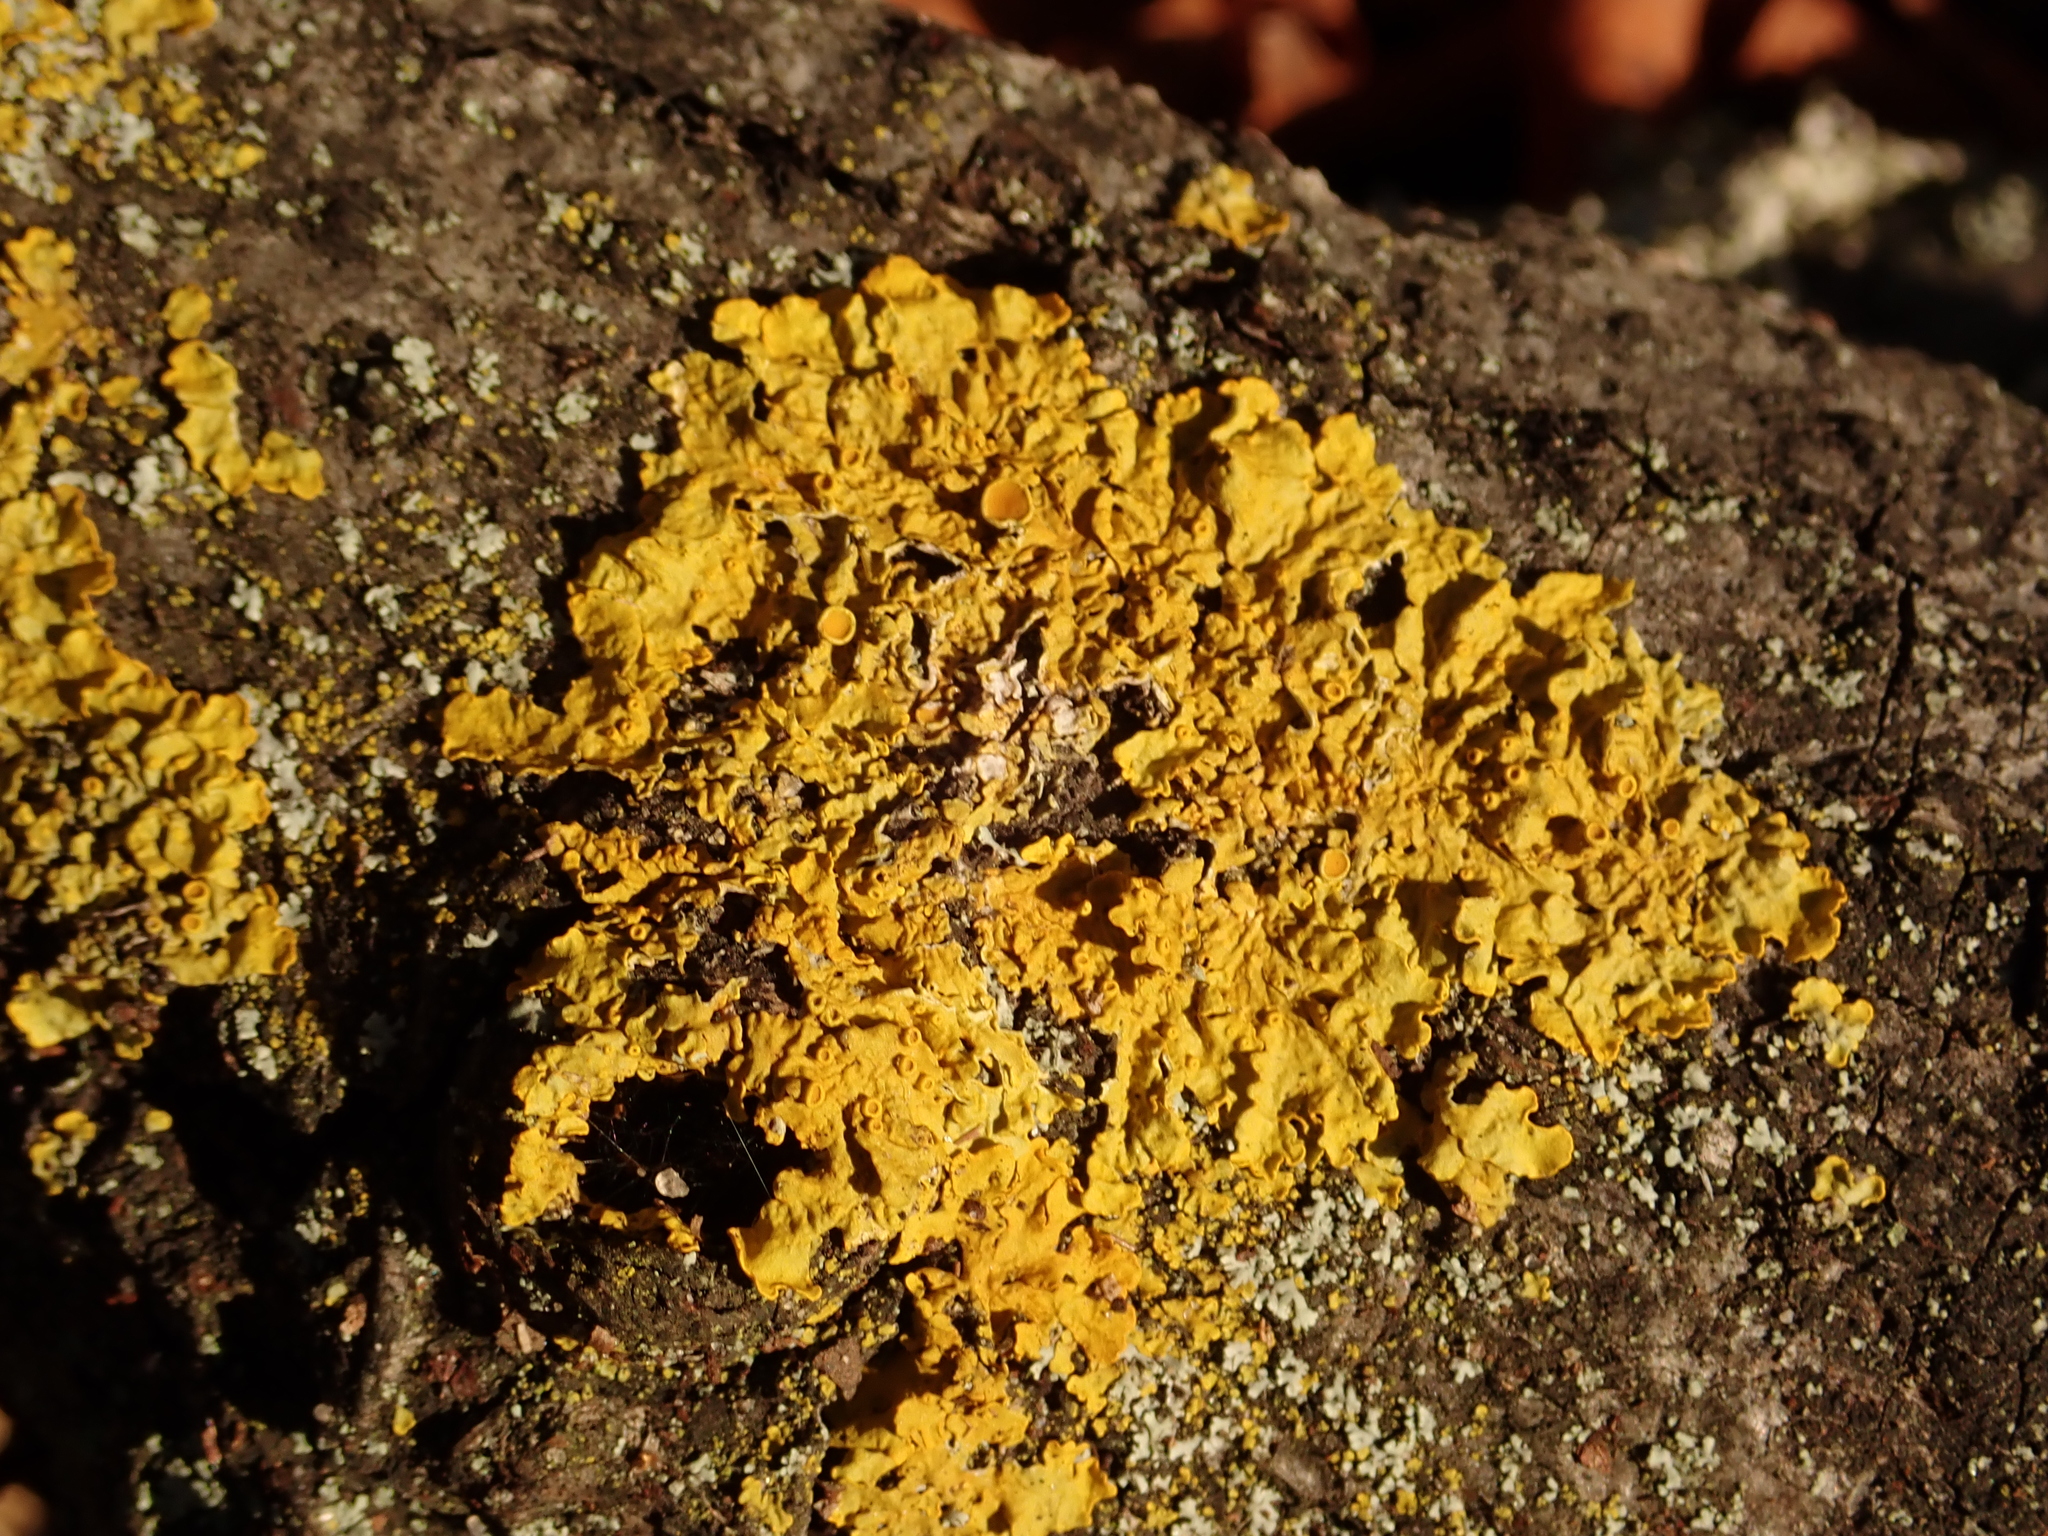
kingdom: Fungi
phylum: Ascomycota
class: Lecanoromycetes
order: Teloschistales
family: Teloschistaceae
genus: Xanthoria
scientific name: Xanthoria parietina
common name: Common orange lichen
